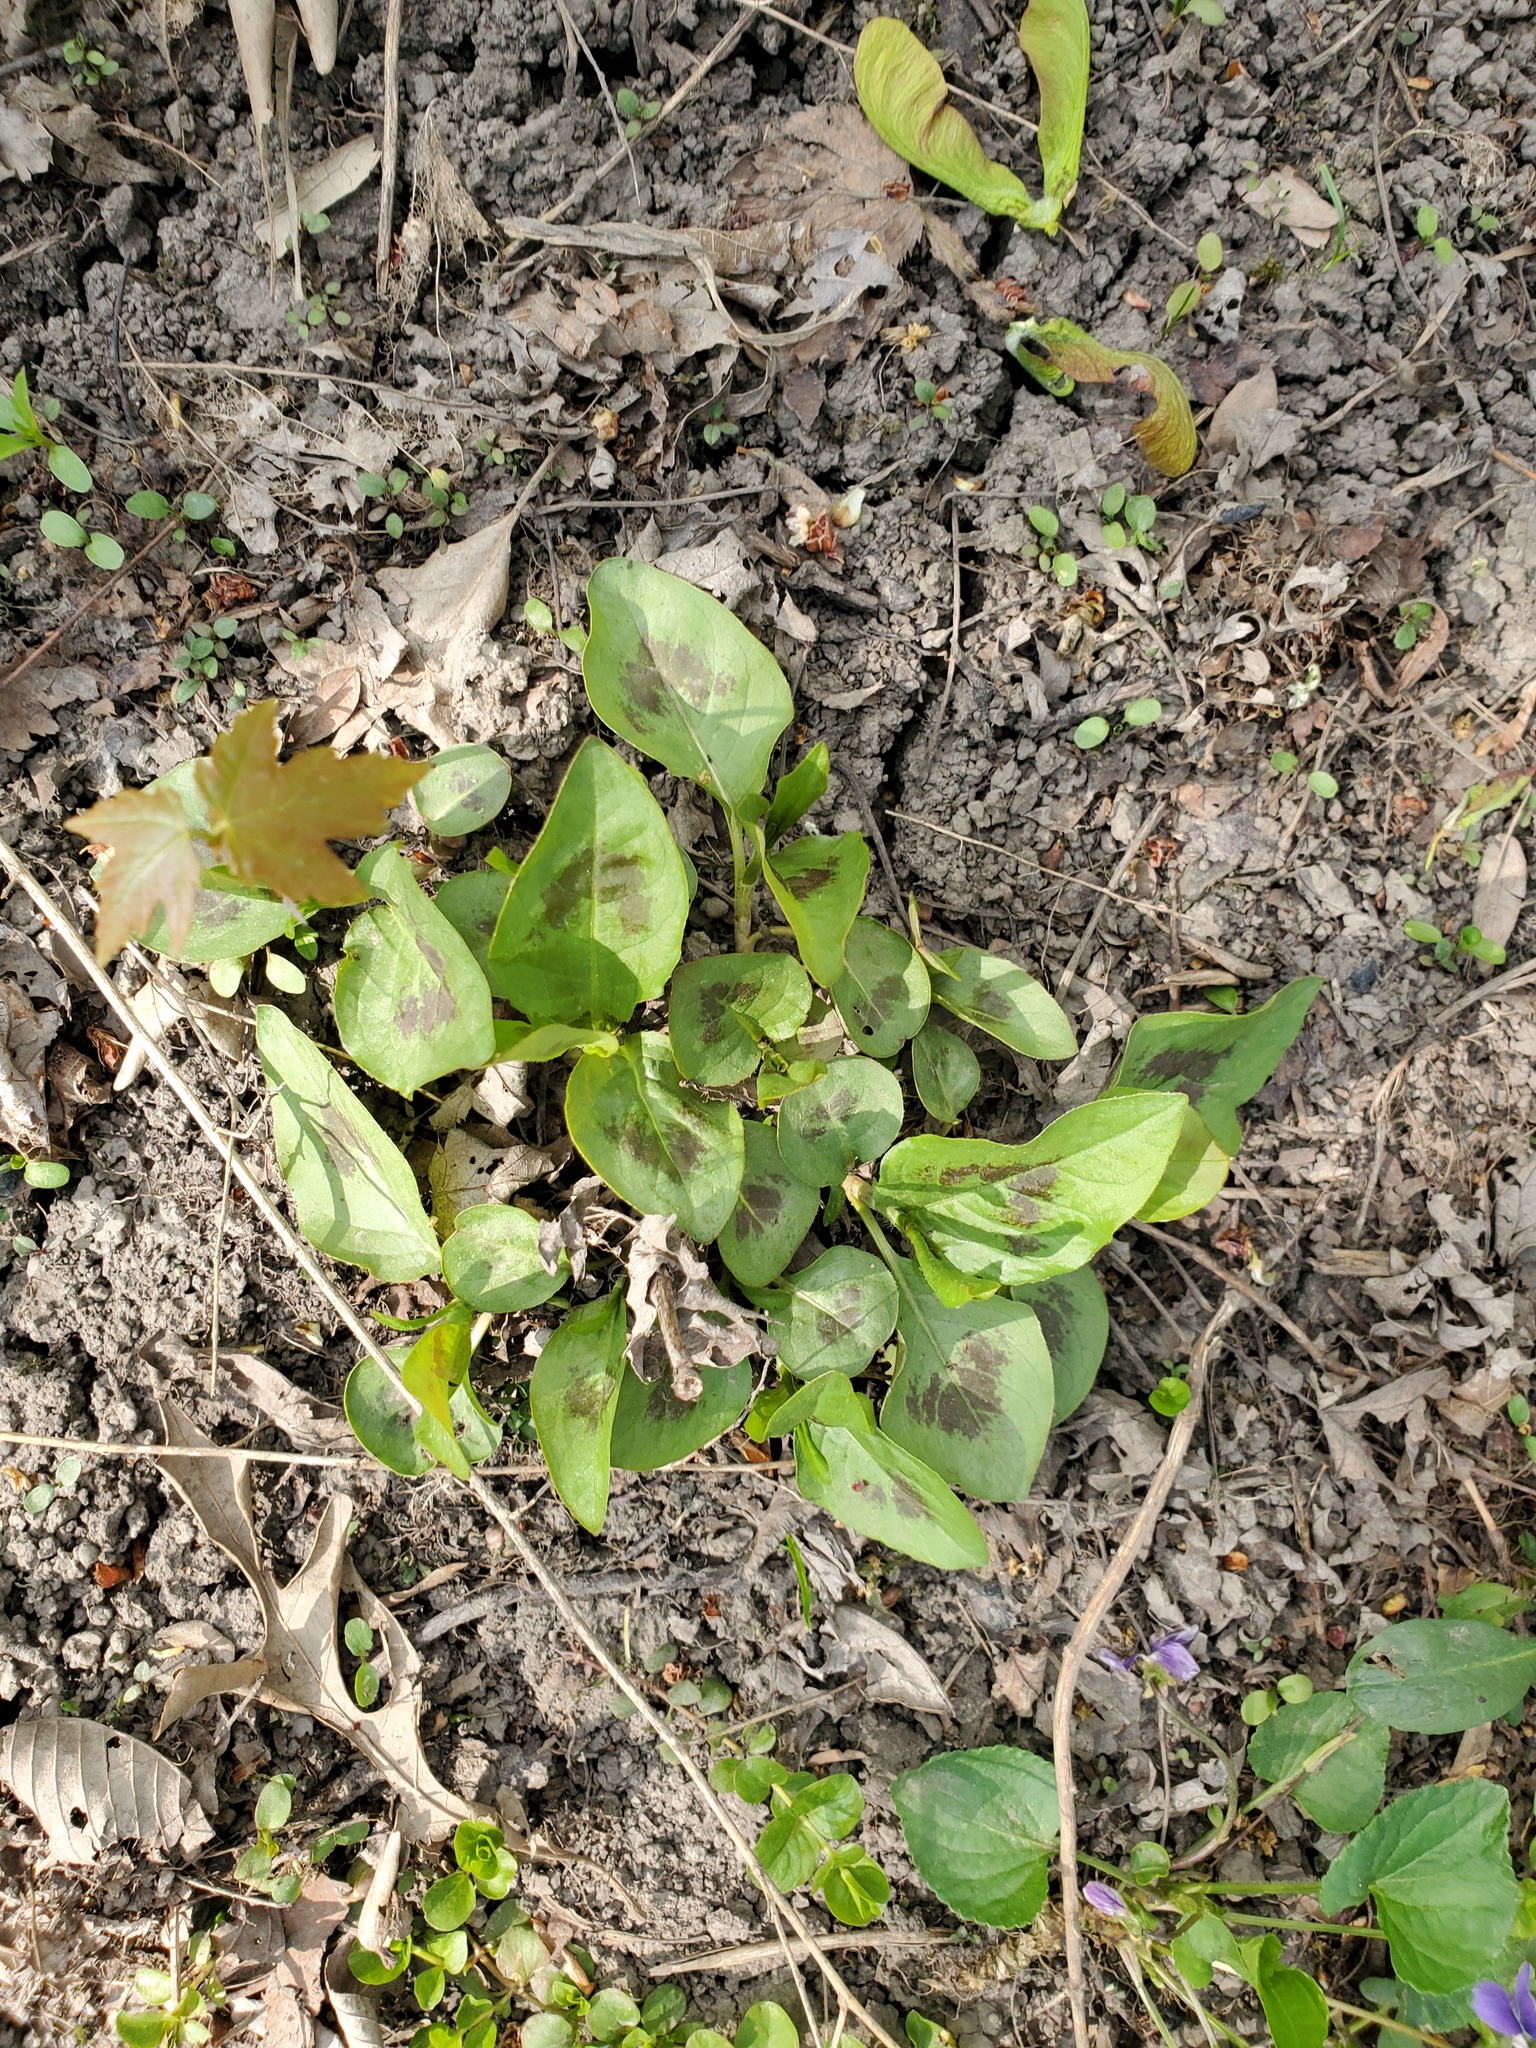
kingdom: Plantae
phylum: Tracheophyta
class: Magnoliopsida
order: Caryophyllales
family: Polygonaceae
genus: Persicaria
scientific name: Persicaria virginiana
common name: Jumpseed
